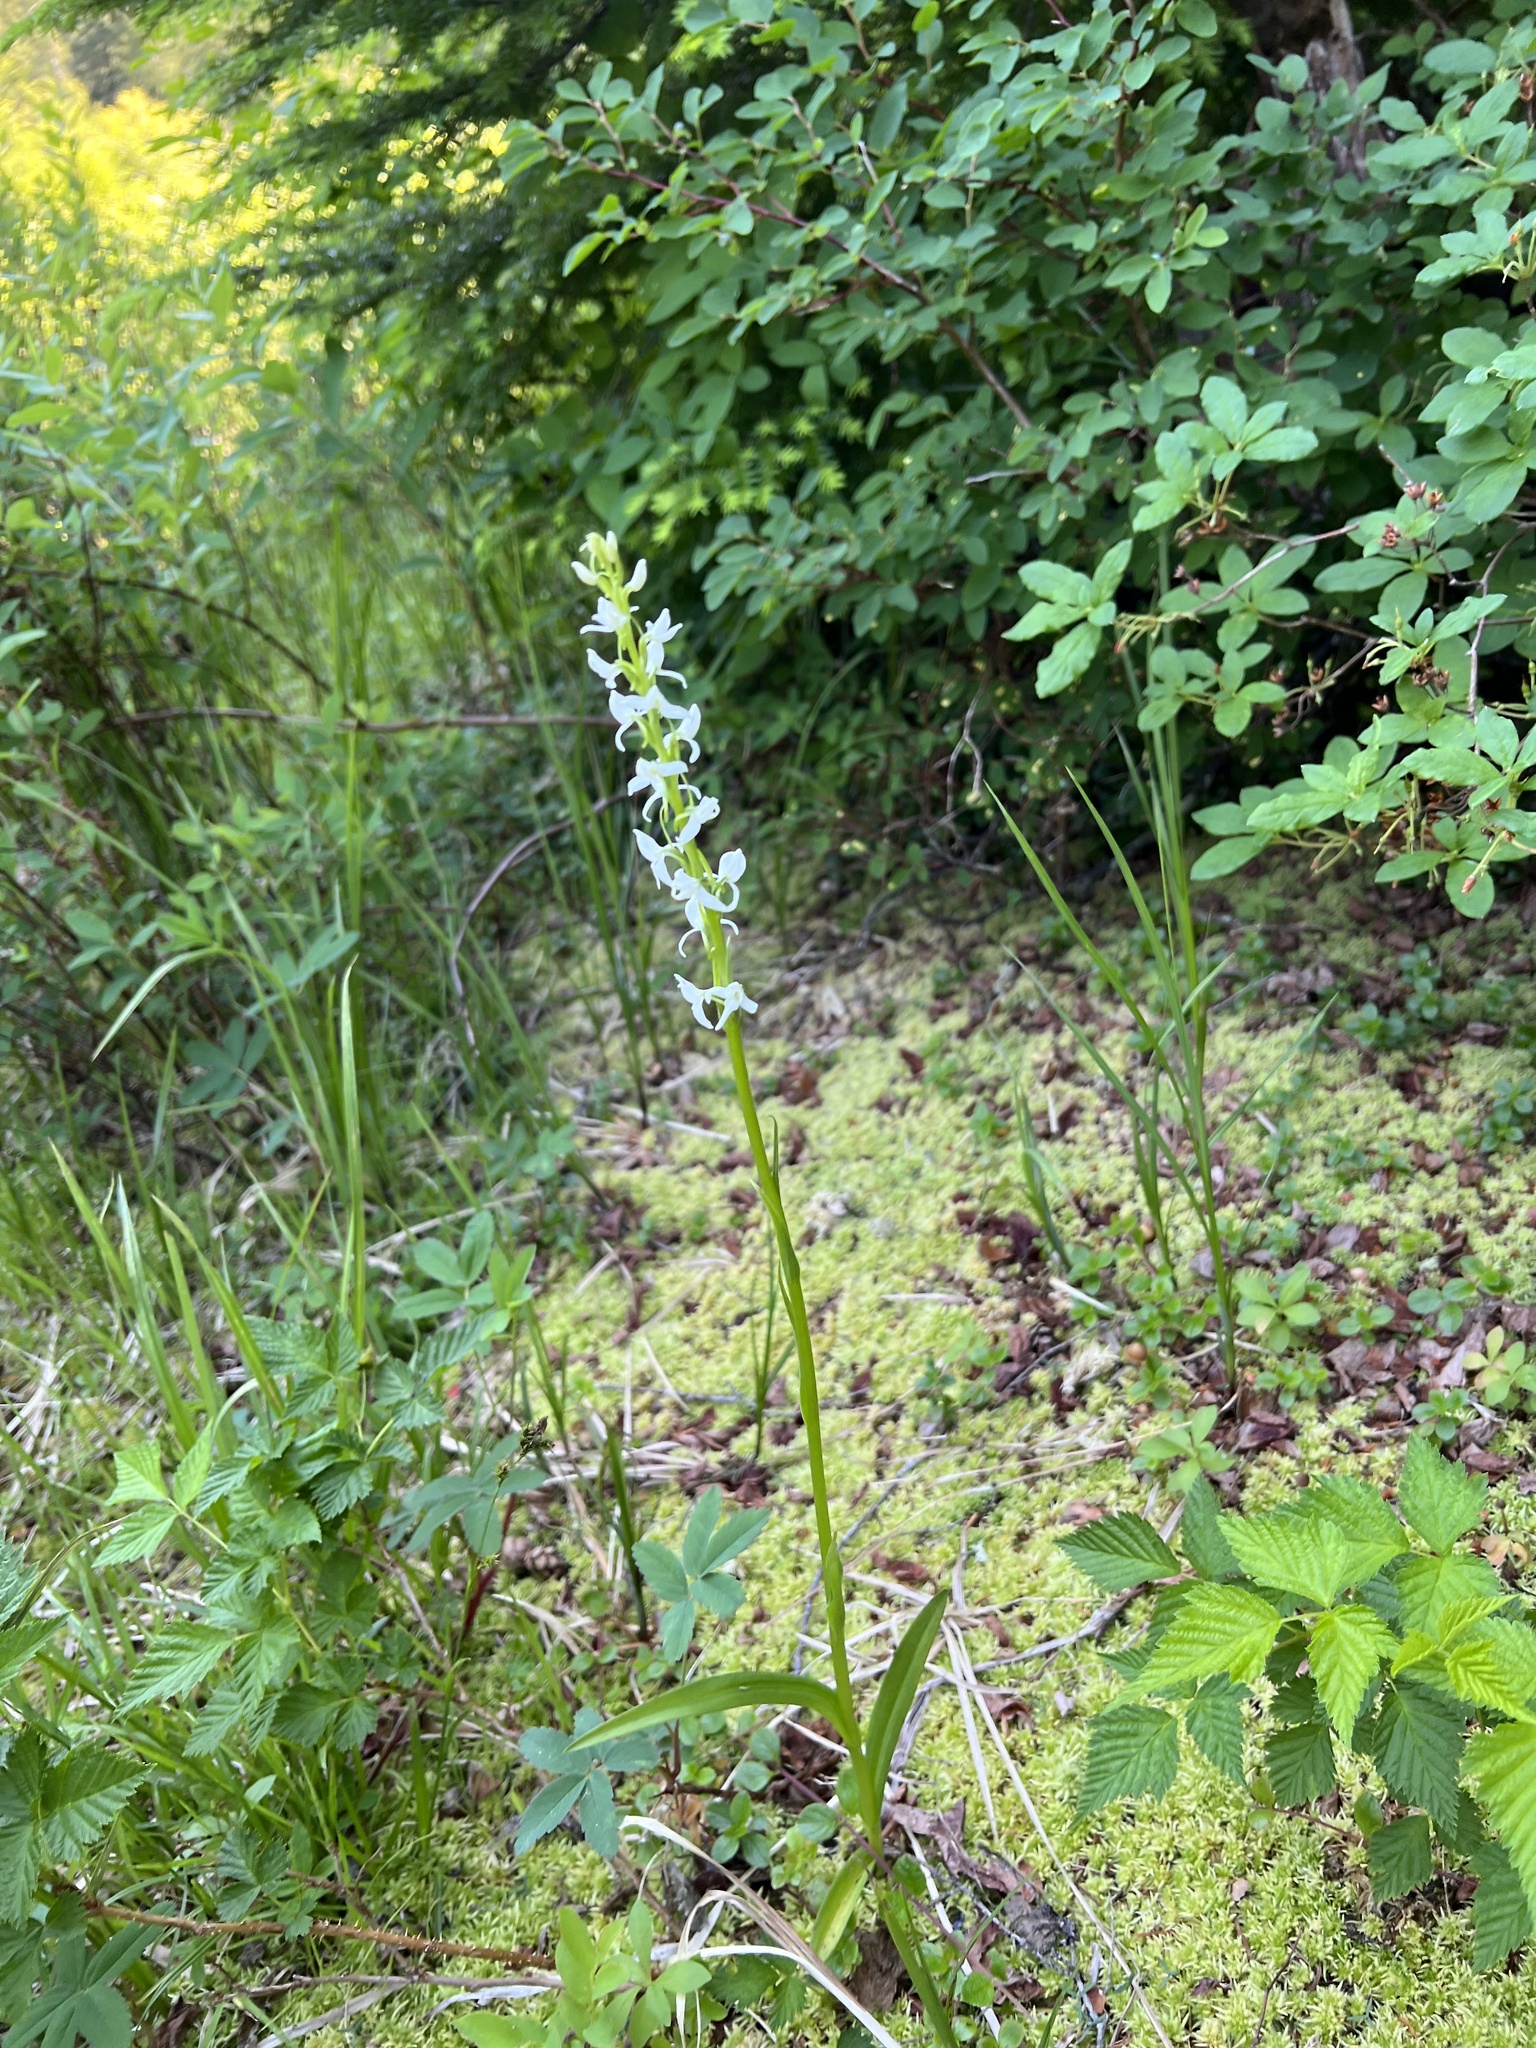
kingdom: Plantae
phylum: Tracheophyta
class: Liliopsida
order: Asparagales
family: Orchidaceae
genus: Platanthera
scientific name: Platanthera dilatata
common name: Bog candles
